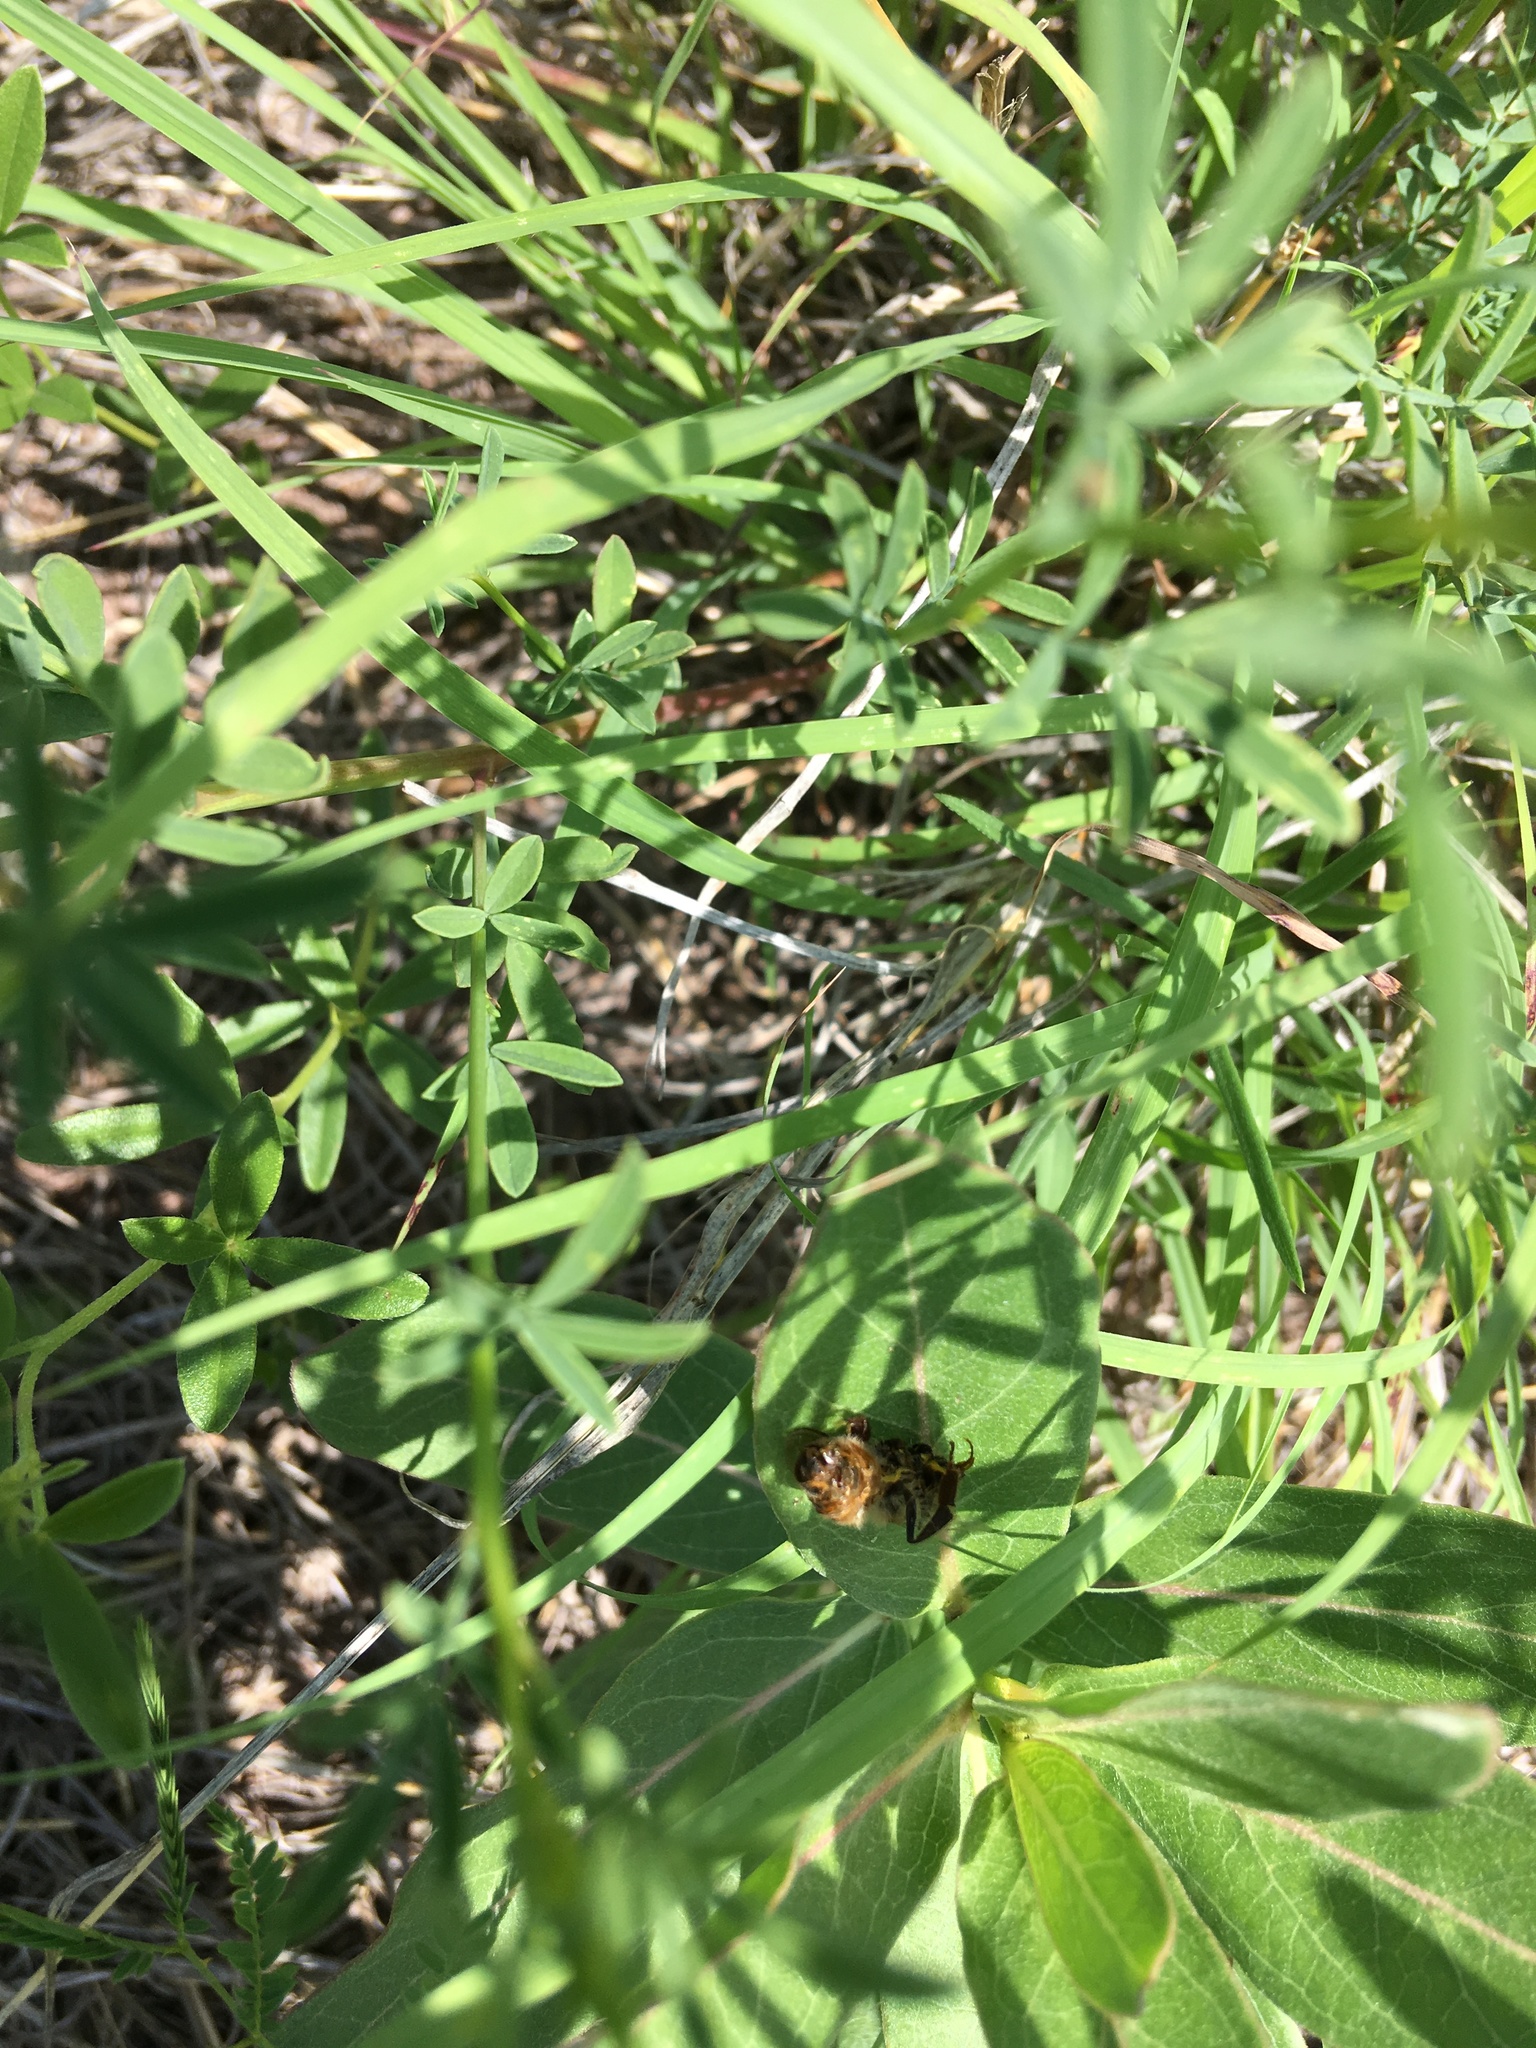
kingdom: Animalia
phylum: Arthropoda
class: Insecta
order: Hymenoptera
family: Apidae
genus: Apis
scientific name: Apis mellifera
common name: Honey bee
